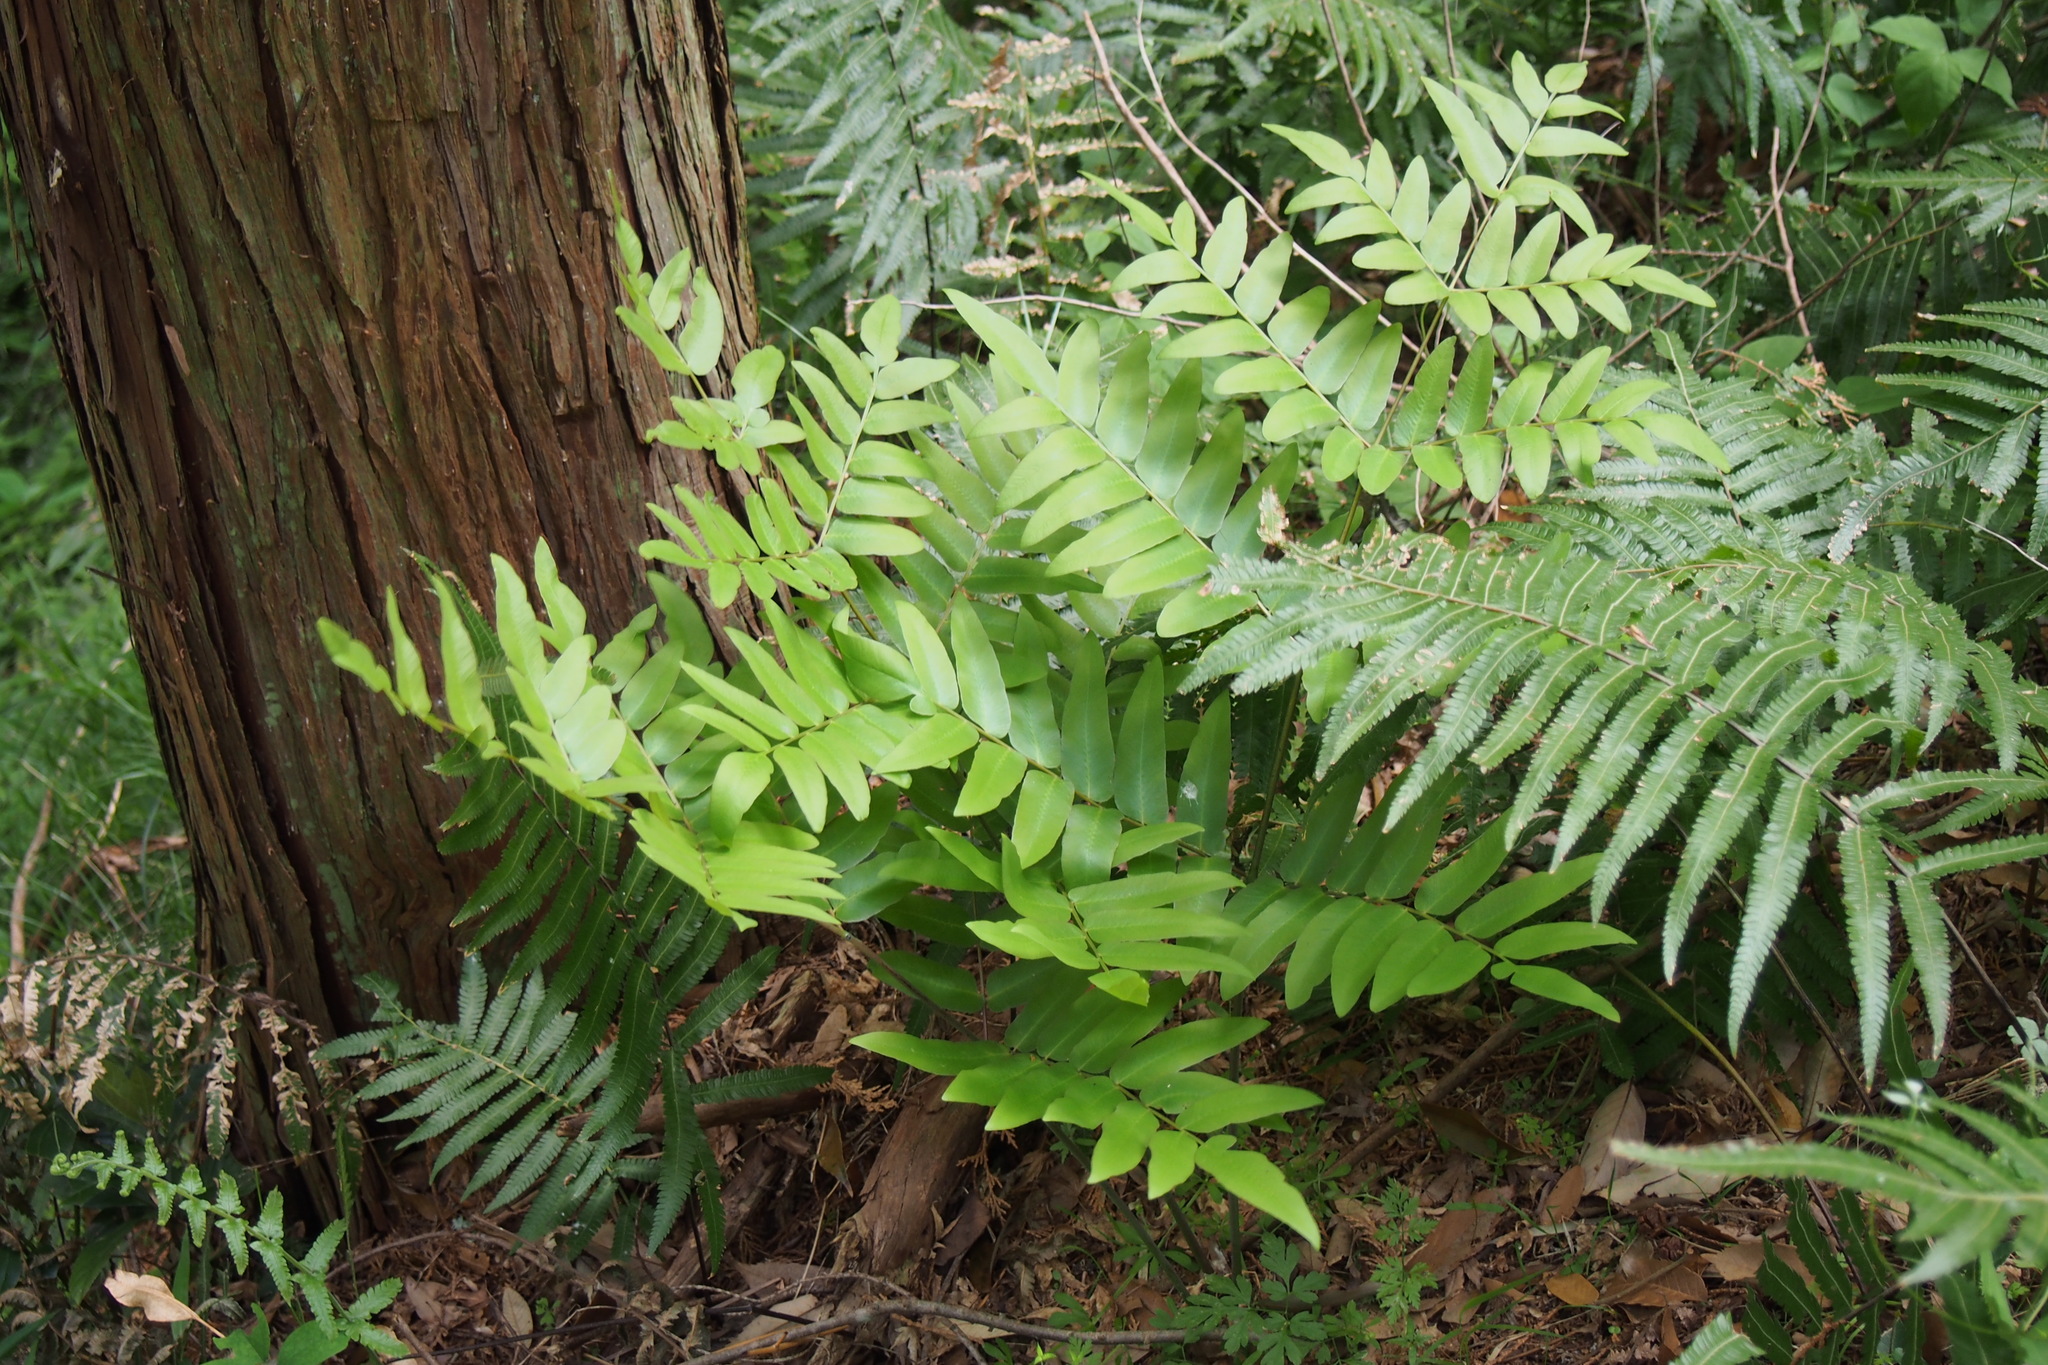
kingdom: Plantae
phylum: Tracheophyta
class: Polypodiopsida
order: Osmundales
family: Osmundaceae
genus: Osmunda
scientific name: Osmunda japonica
